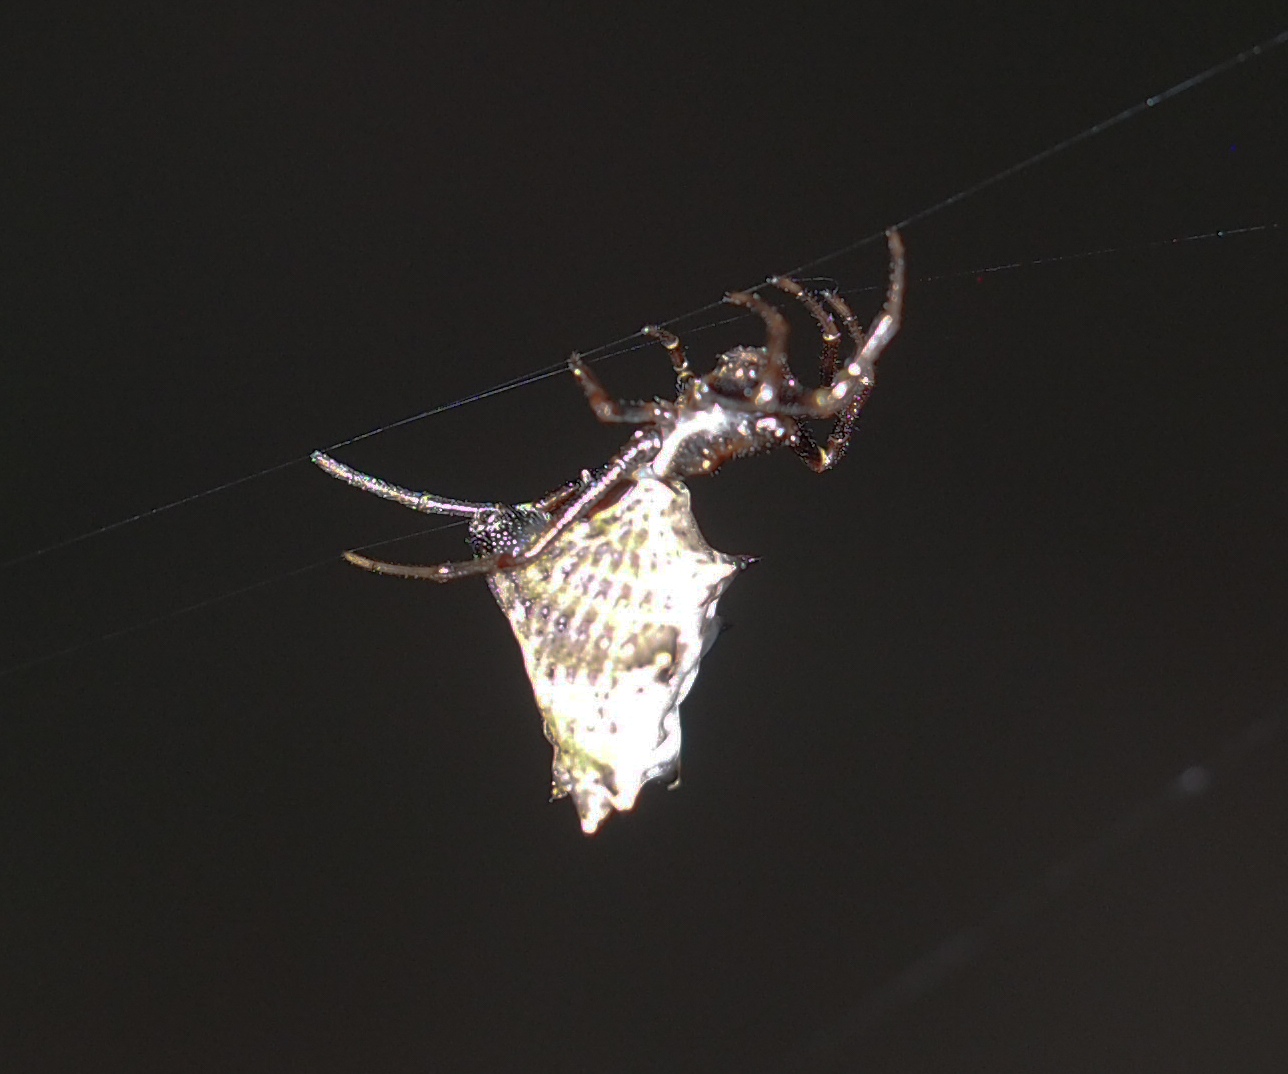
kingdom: Animalia
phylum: Arthropoda
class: Arachnida
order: Araneae
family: Araneidae
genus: Micrathena
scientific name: Micrathena gracilis
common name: Orb weavers
